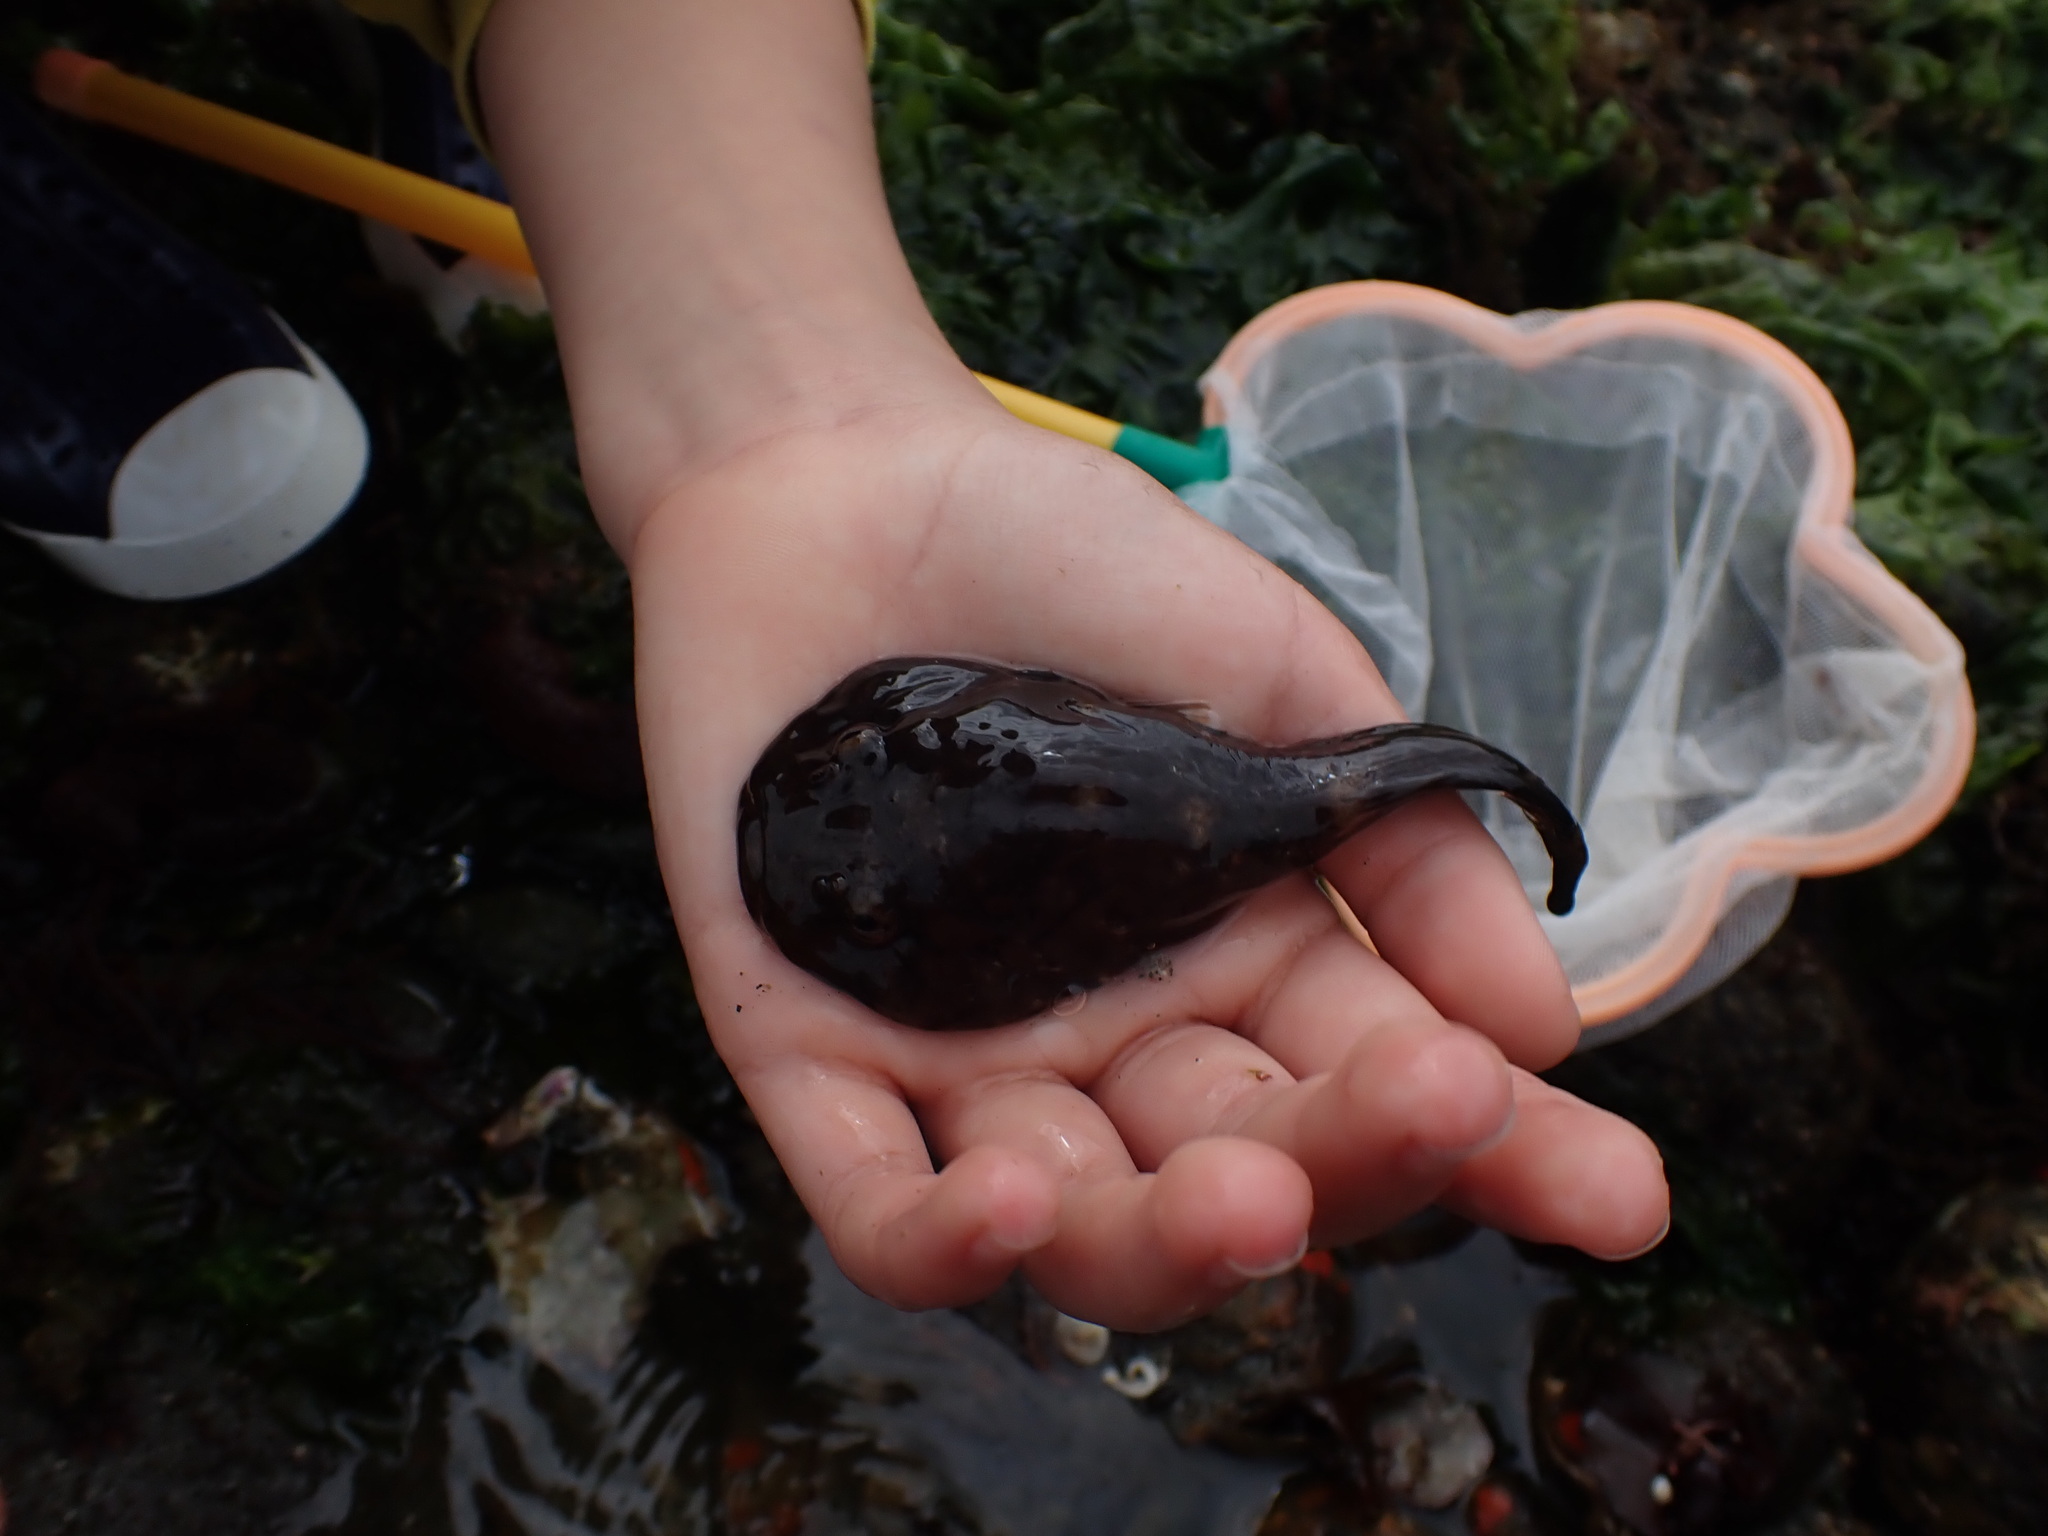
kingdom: Animalia
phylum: Chordata
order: Gobiesociformes
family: Gobiesocidae
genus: Gobiesox
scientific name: Gobiesox maeandricus
